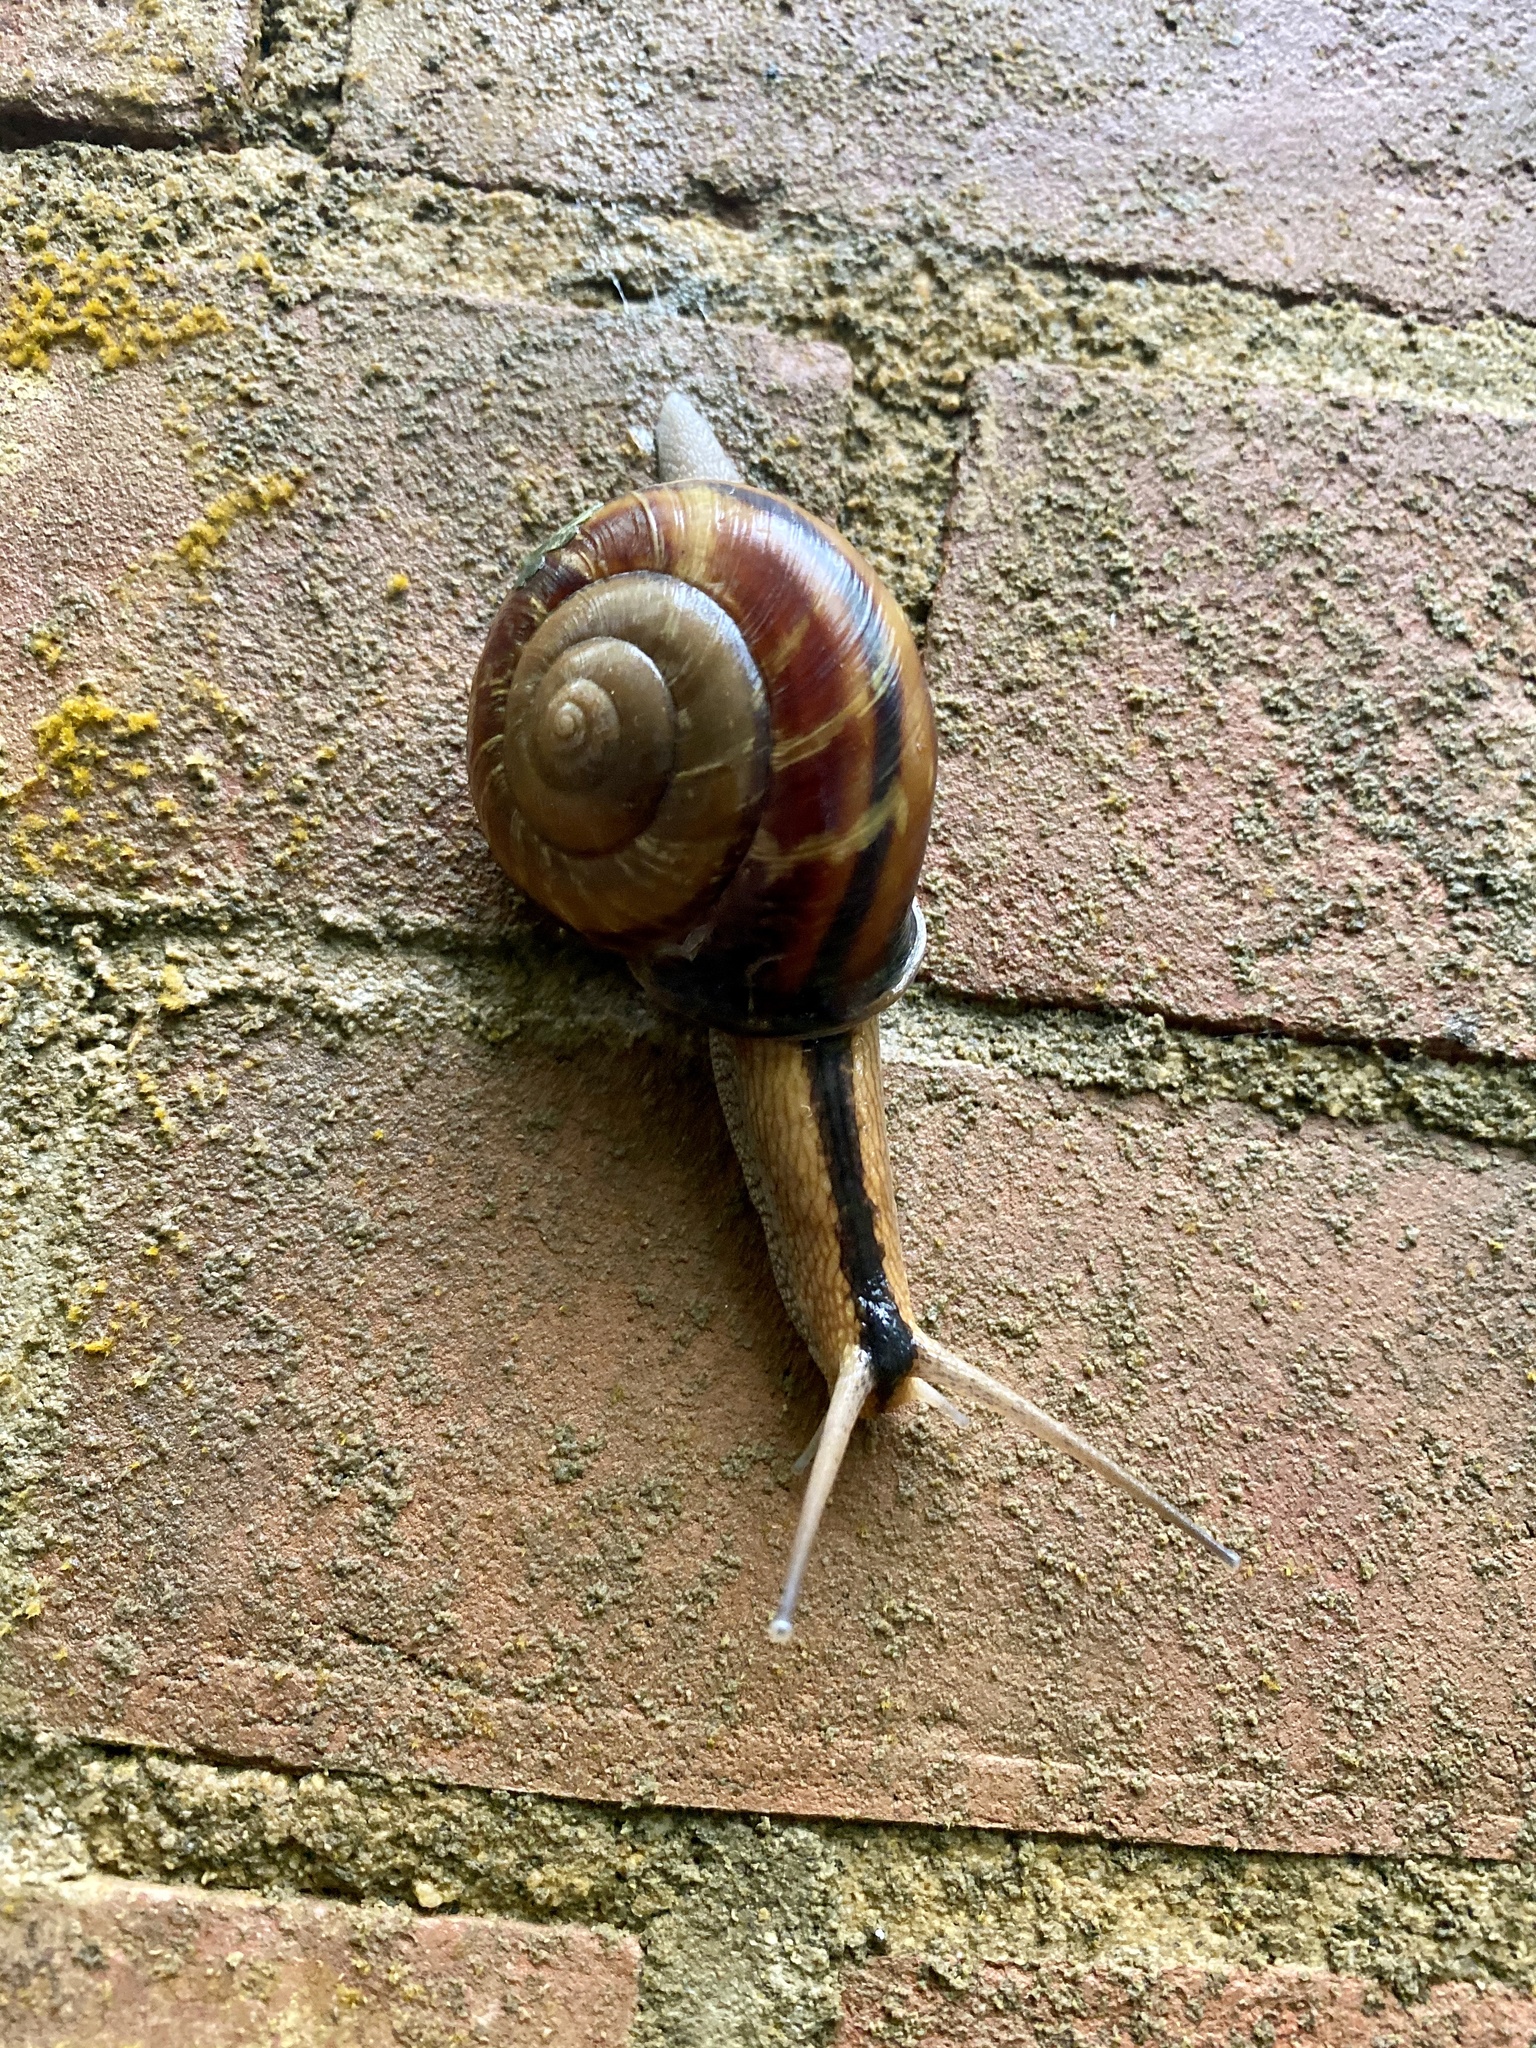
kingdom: Animalia
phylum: Mollusca
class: Gastropoda
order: Stylommatophora
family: Camaenidae
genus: Euhadra
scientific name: Euhadra sandai
